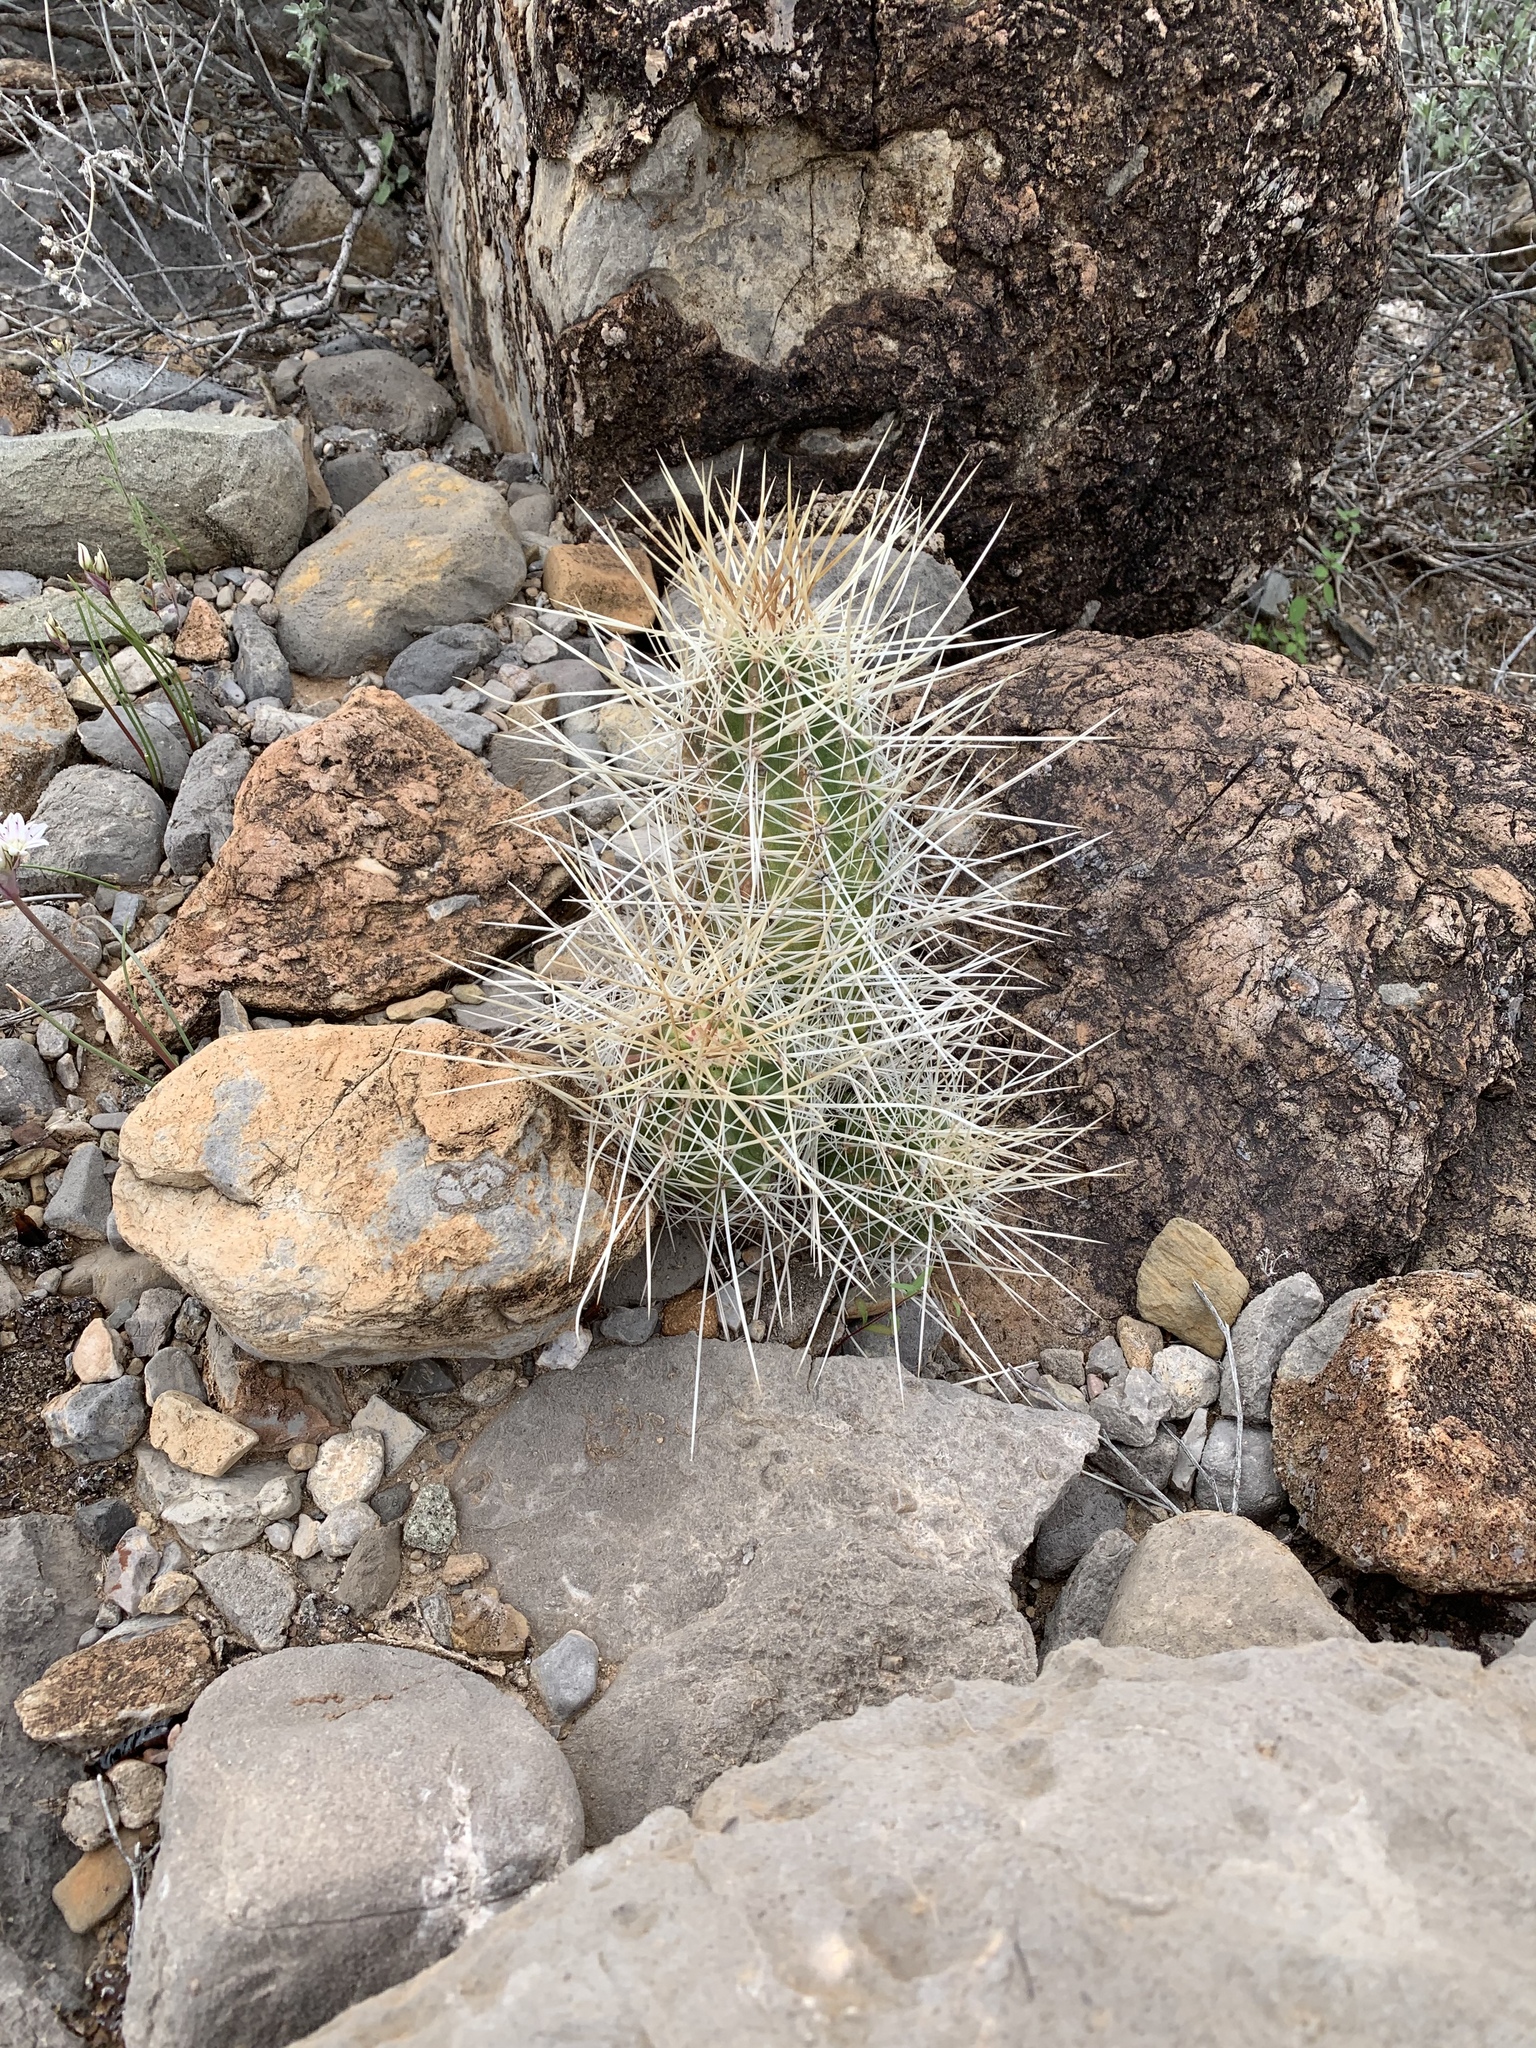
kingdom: Plantae
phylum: Tracheophyta
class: Magnoliopsida
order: Caryophyllales
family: Cactaceae
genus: Echinocereus
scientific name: Echinocereus stramineus
